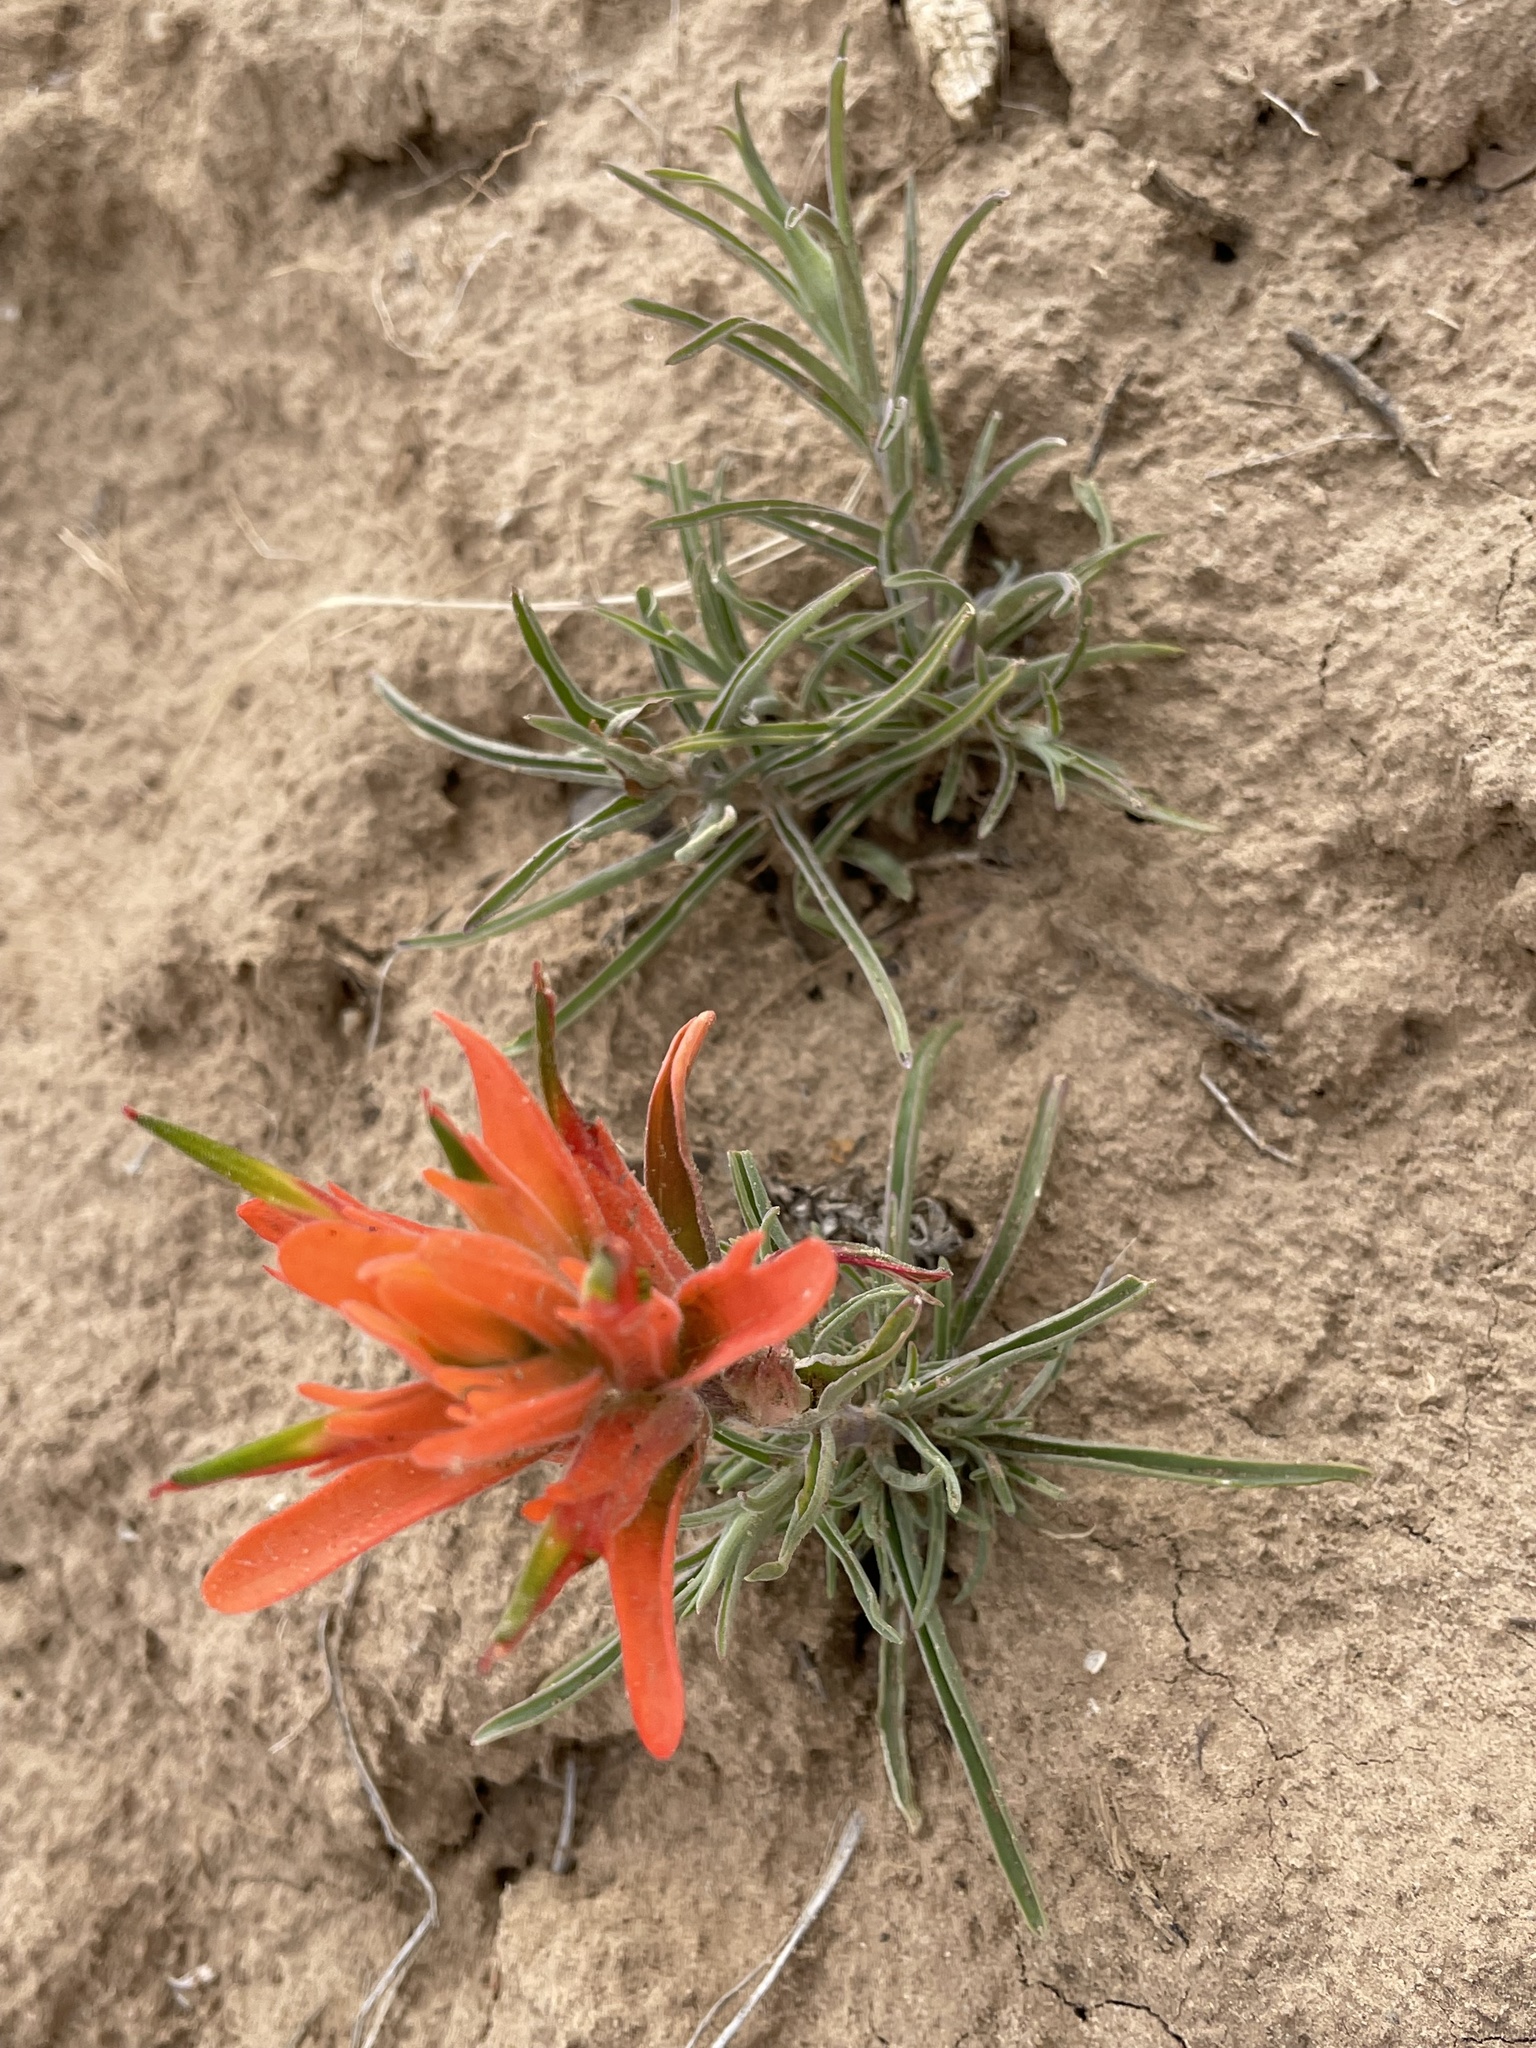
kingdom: Plantae
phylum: Tracheophyta
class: Magnoliopsida
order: Lamiales
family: Orobanchaceae
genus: Castilleja
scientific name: Castilleja integra
